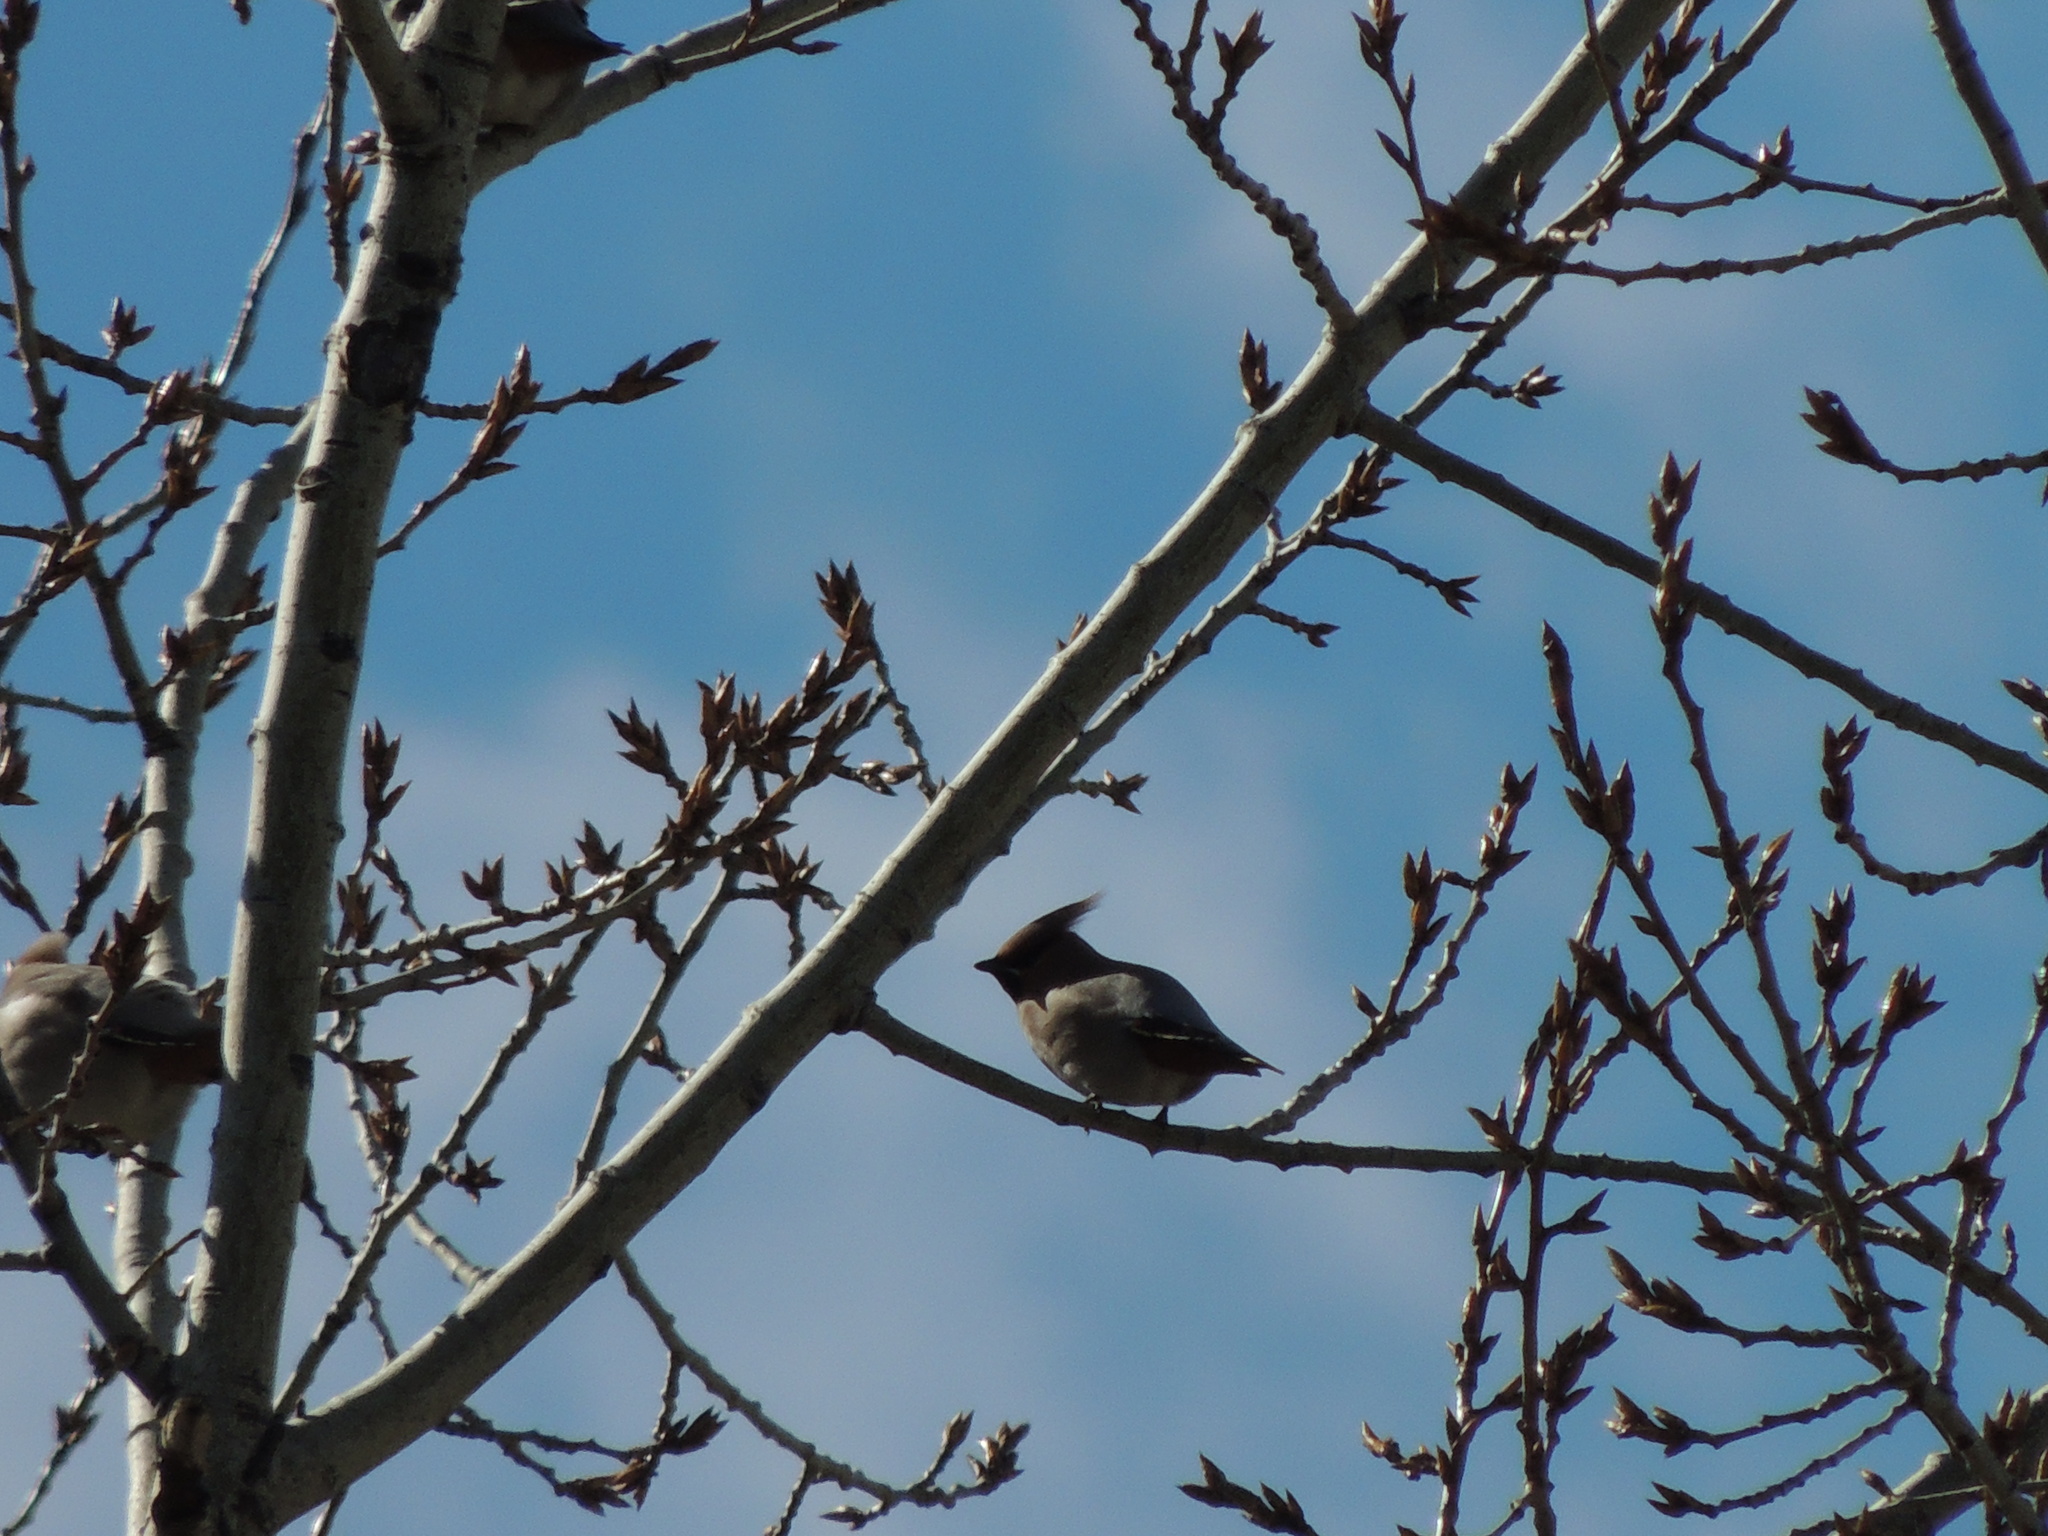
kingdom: Animalia
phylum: Chordata
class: Aves
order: Passeriformes
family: Bombycillidae
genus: Bombycilla
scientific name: Bombycilla garrulus
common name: Bohemian waxwing
